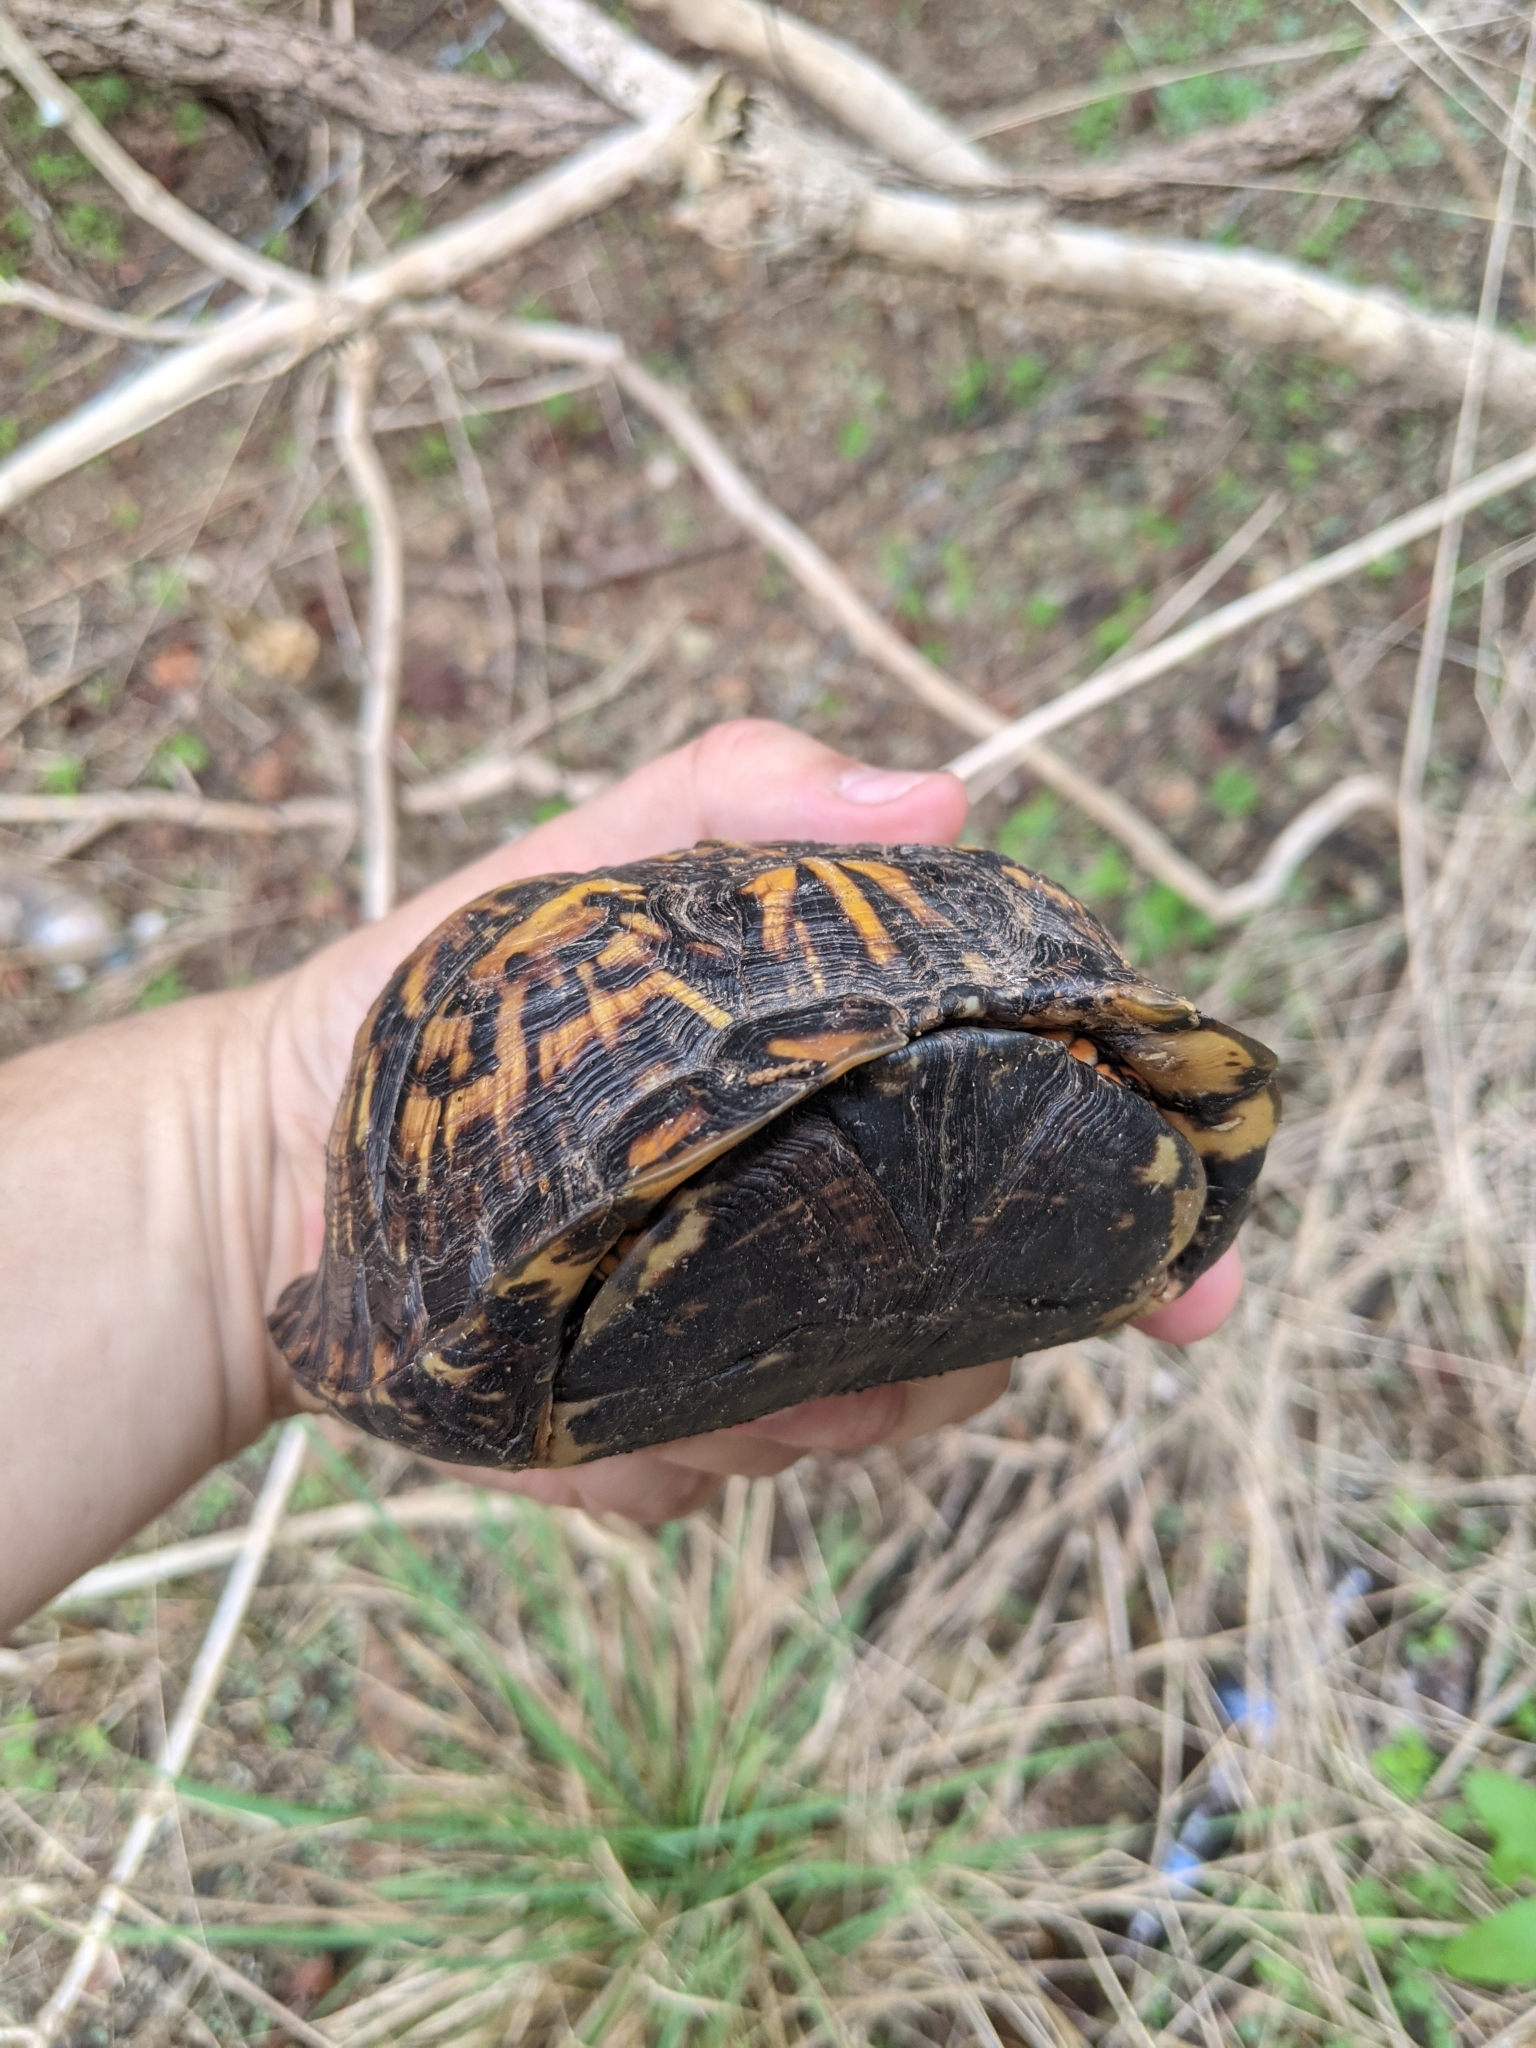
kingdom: Animalia
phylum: Chordata
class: Testudines
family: Emydidae
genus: Terrapene
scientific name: Terrapene carolina
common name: Common box turtle
